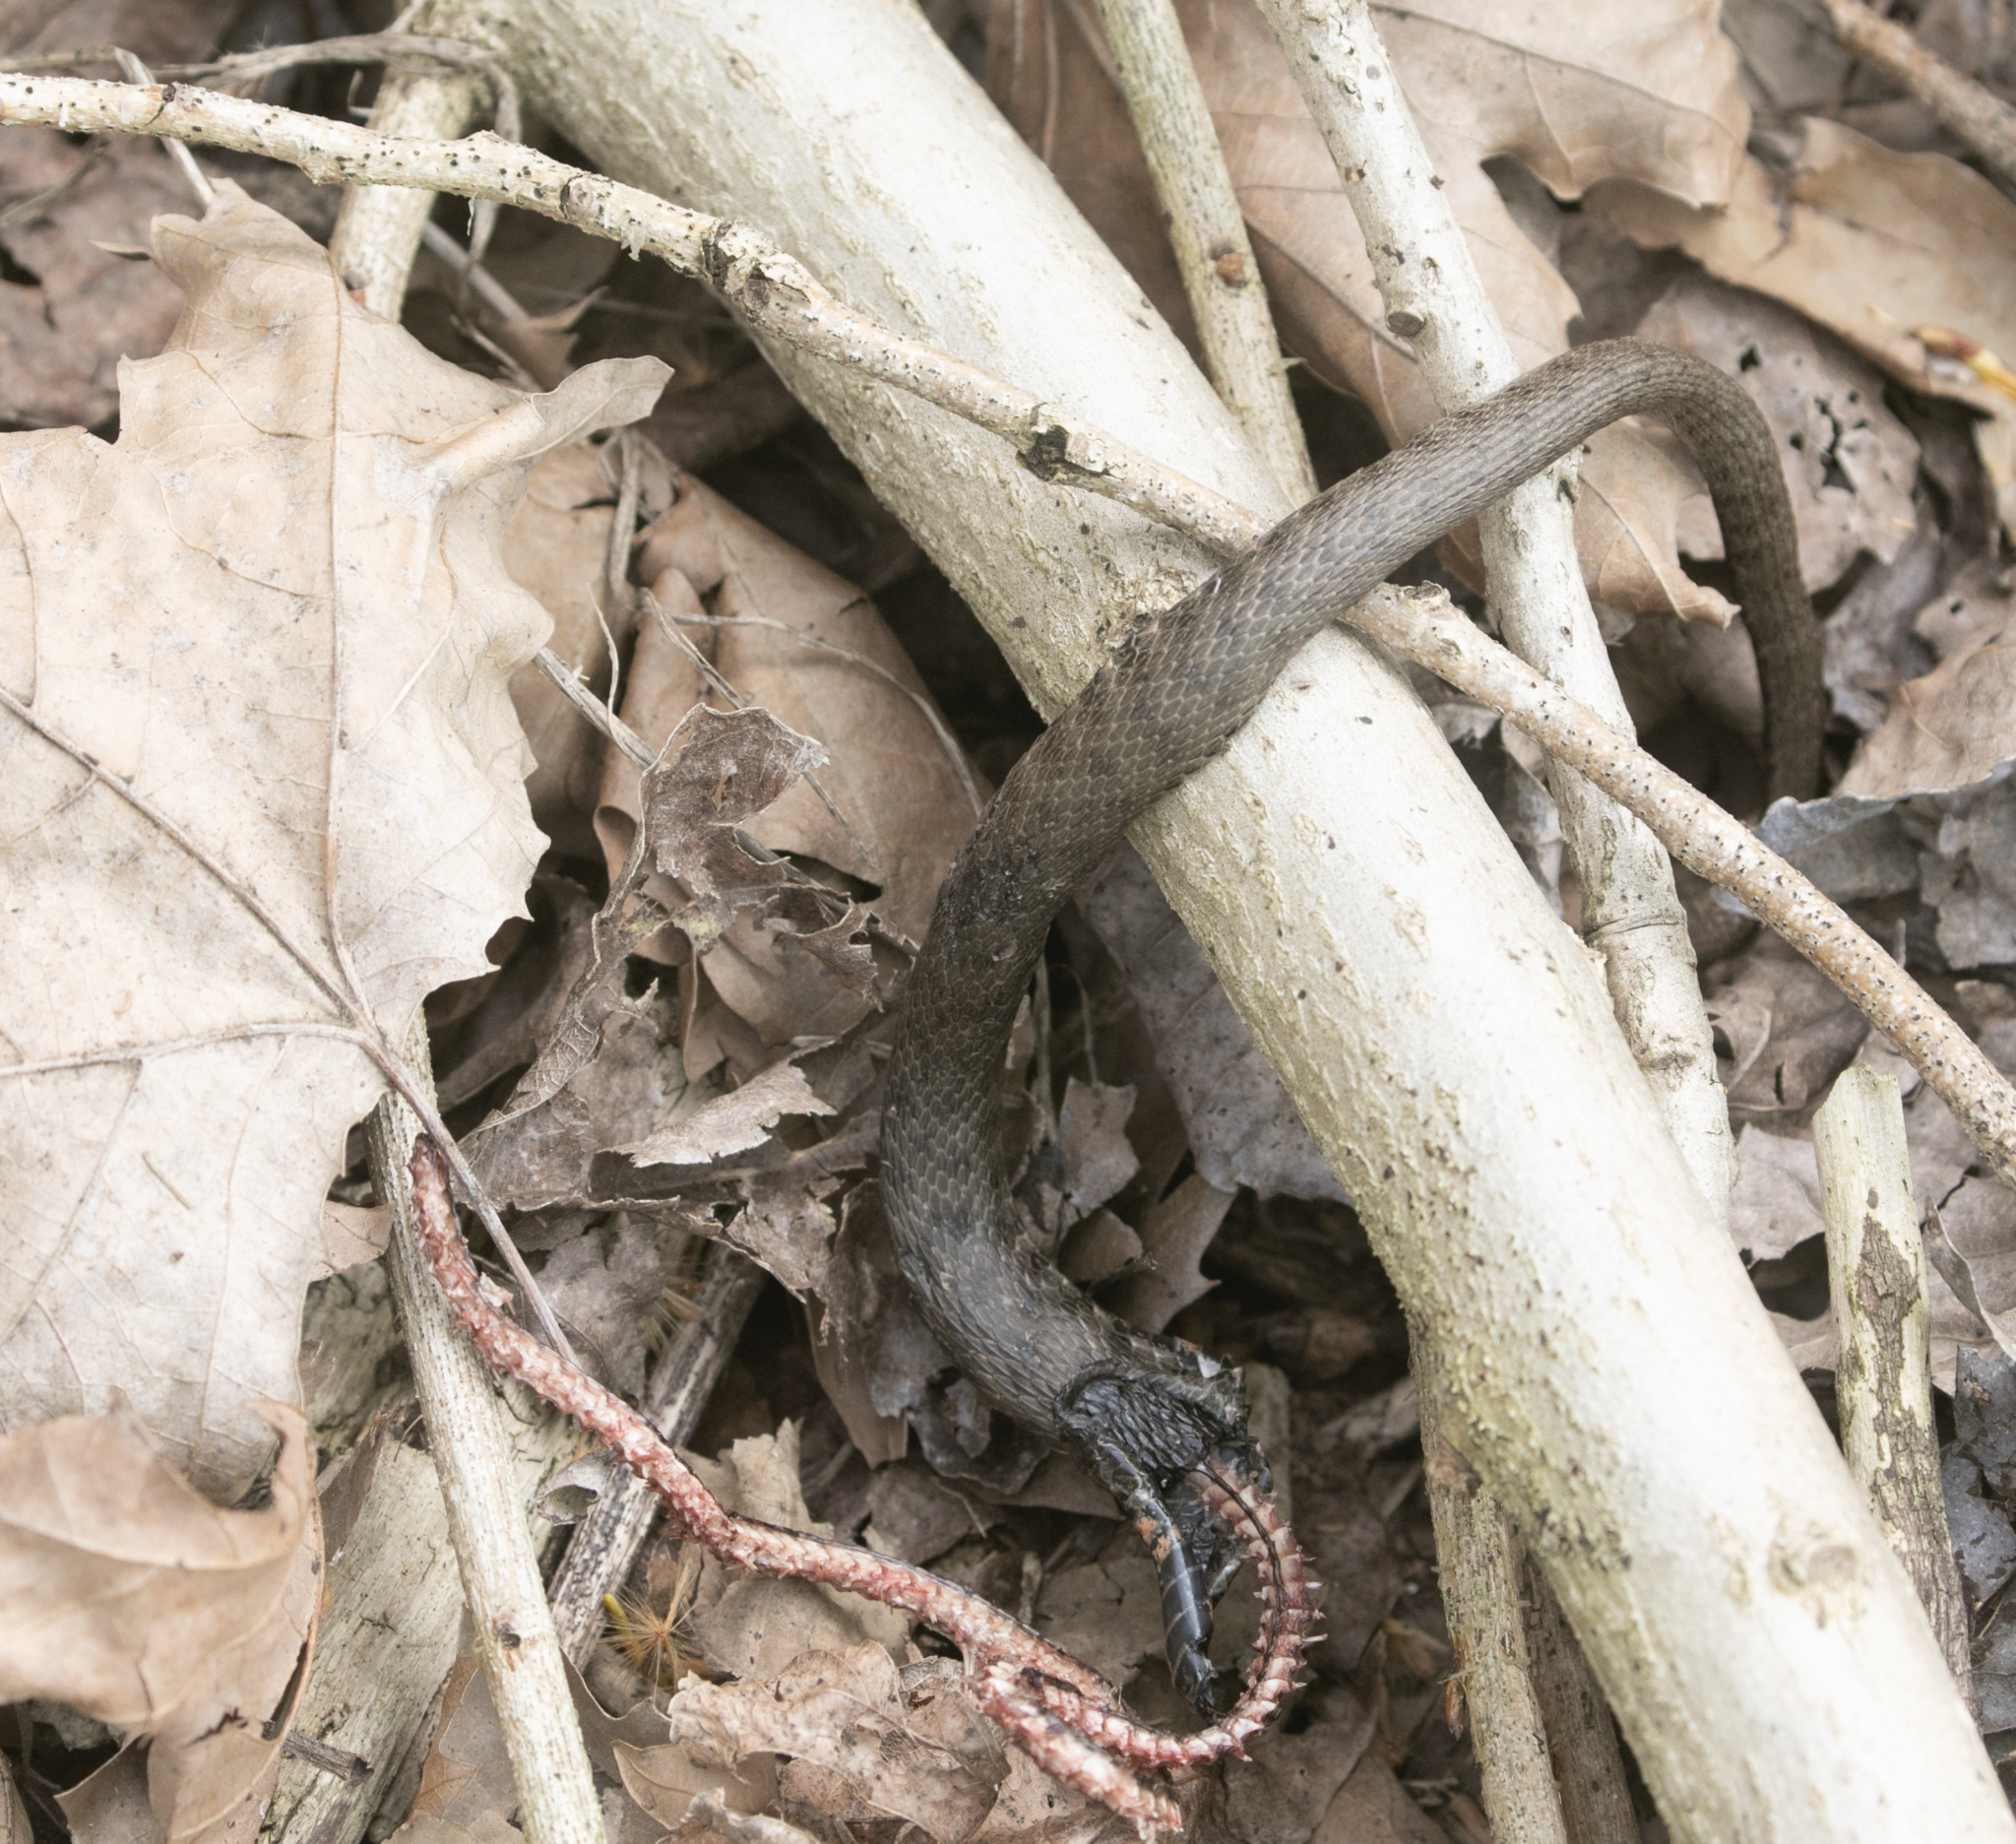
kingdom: Animalia
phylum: Chordata
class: Squamata
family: Colubridae
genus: Natrix
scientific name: Natrix tessellata
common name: Dice snake
